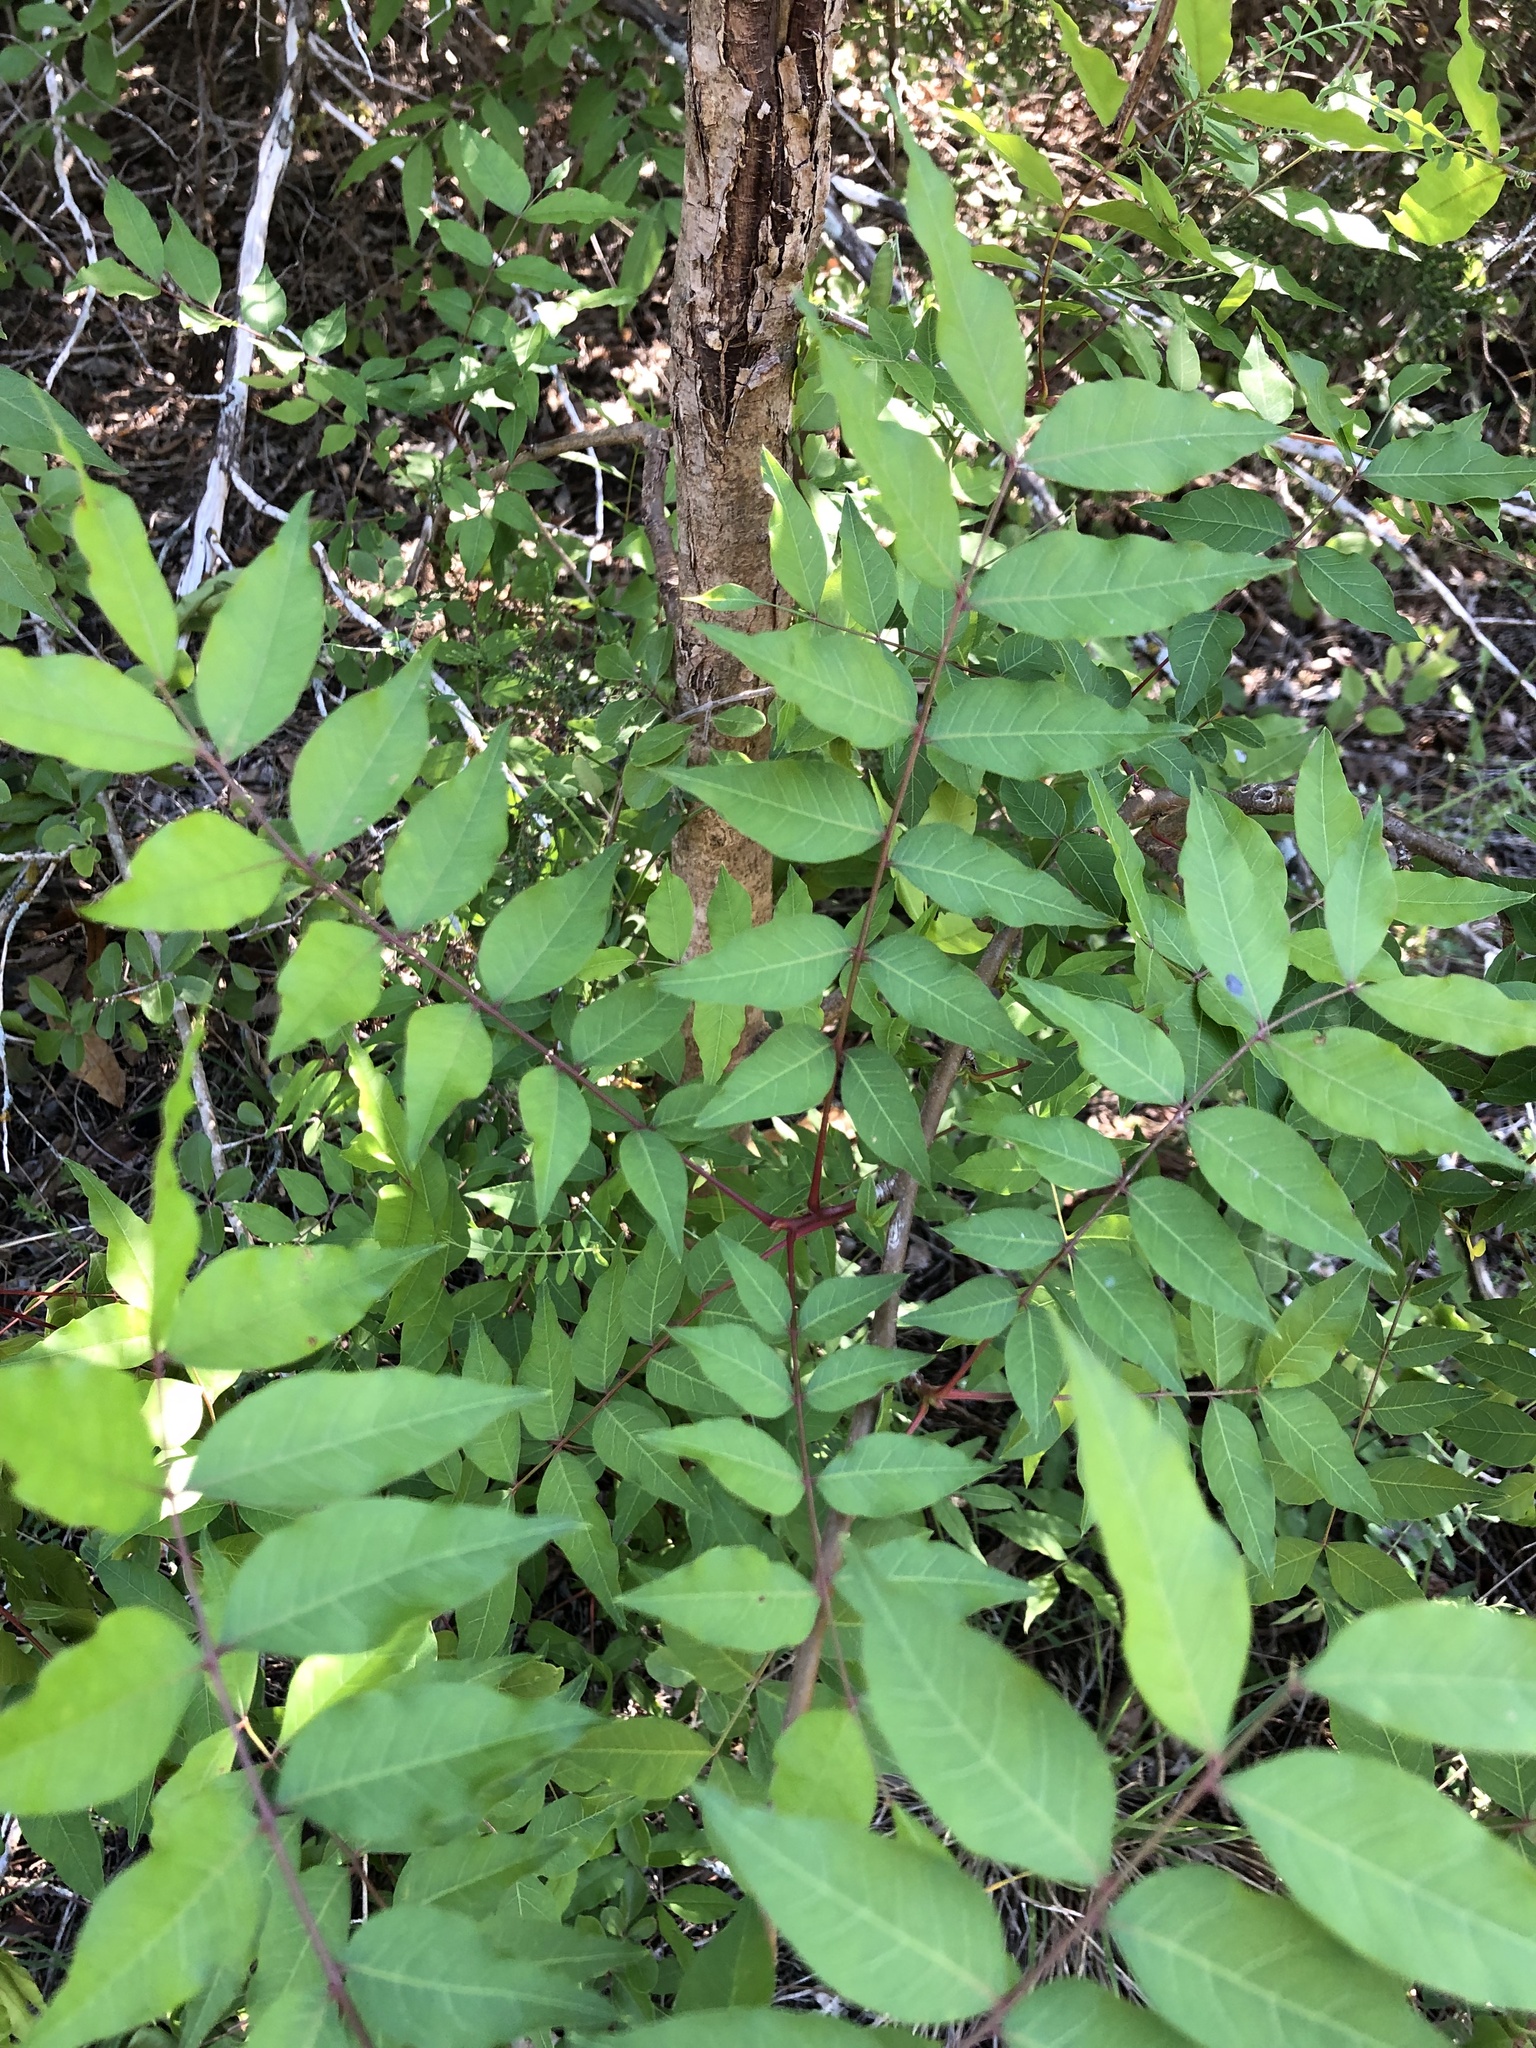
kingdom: Plantae
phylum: Tracheophyta
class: Magnoliopsida
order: Sapindales
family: Anacardiaceae
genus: Pistacia
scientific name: Pistacia chinensis
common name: Chinese pistache
